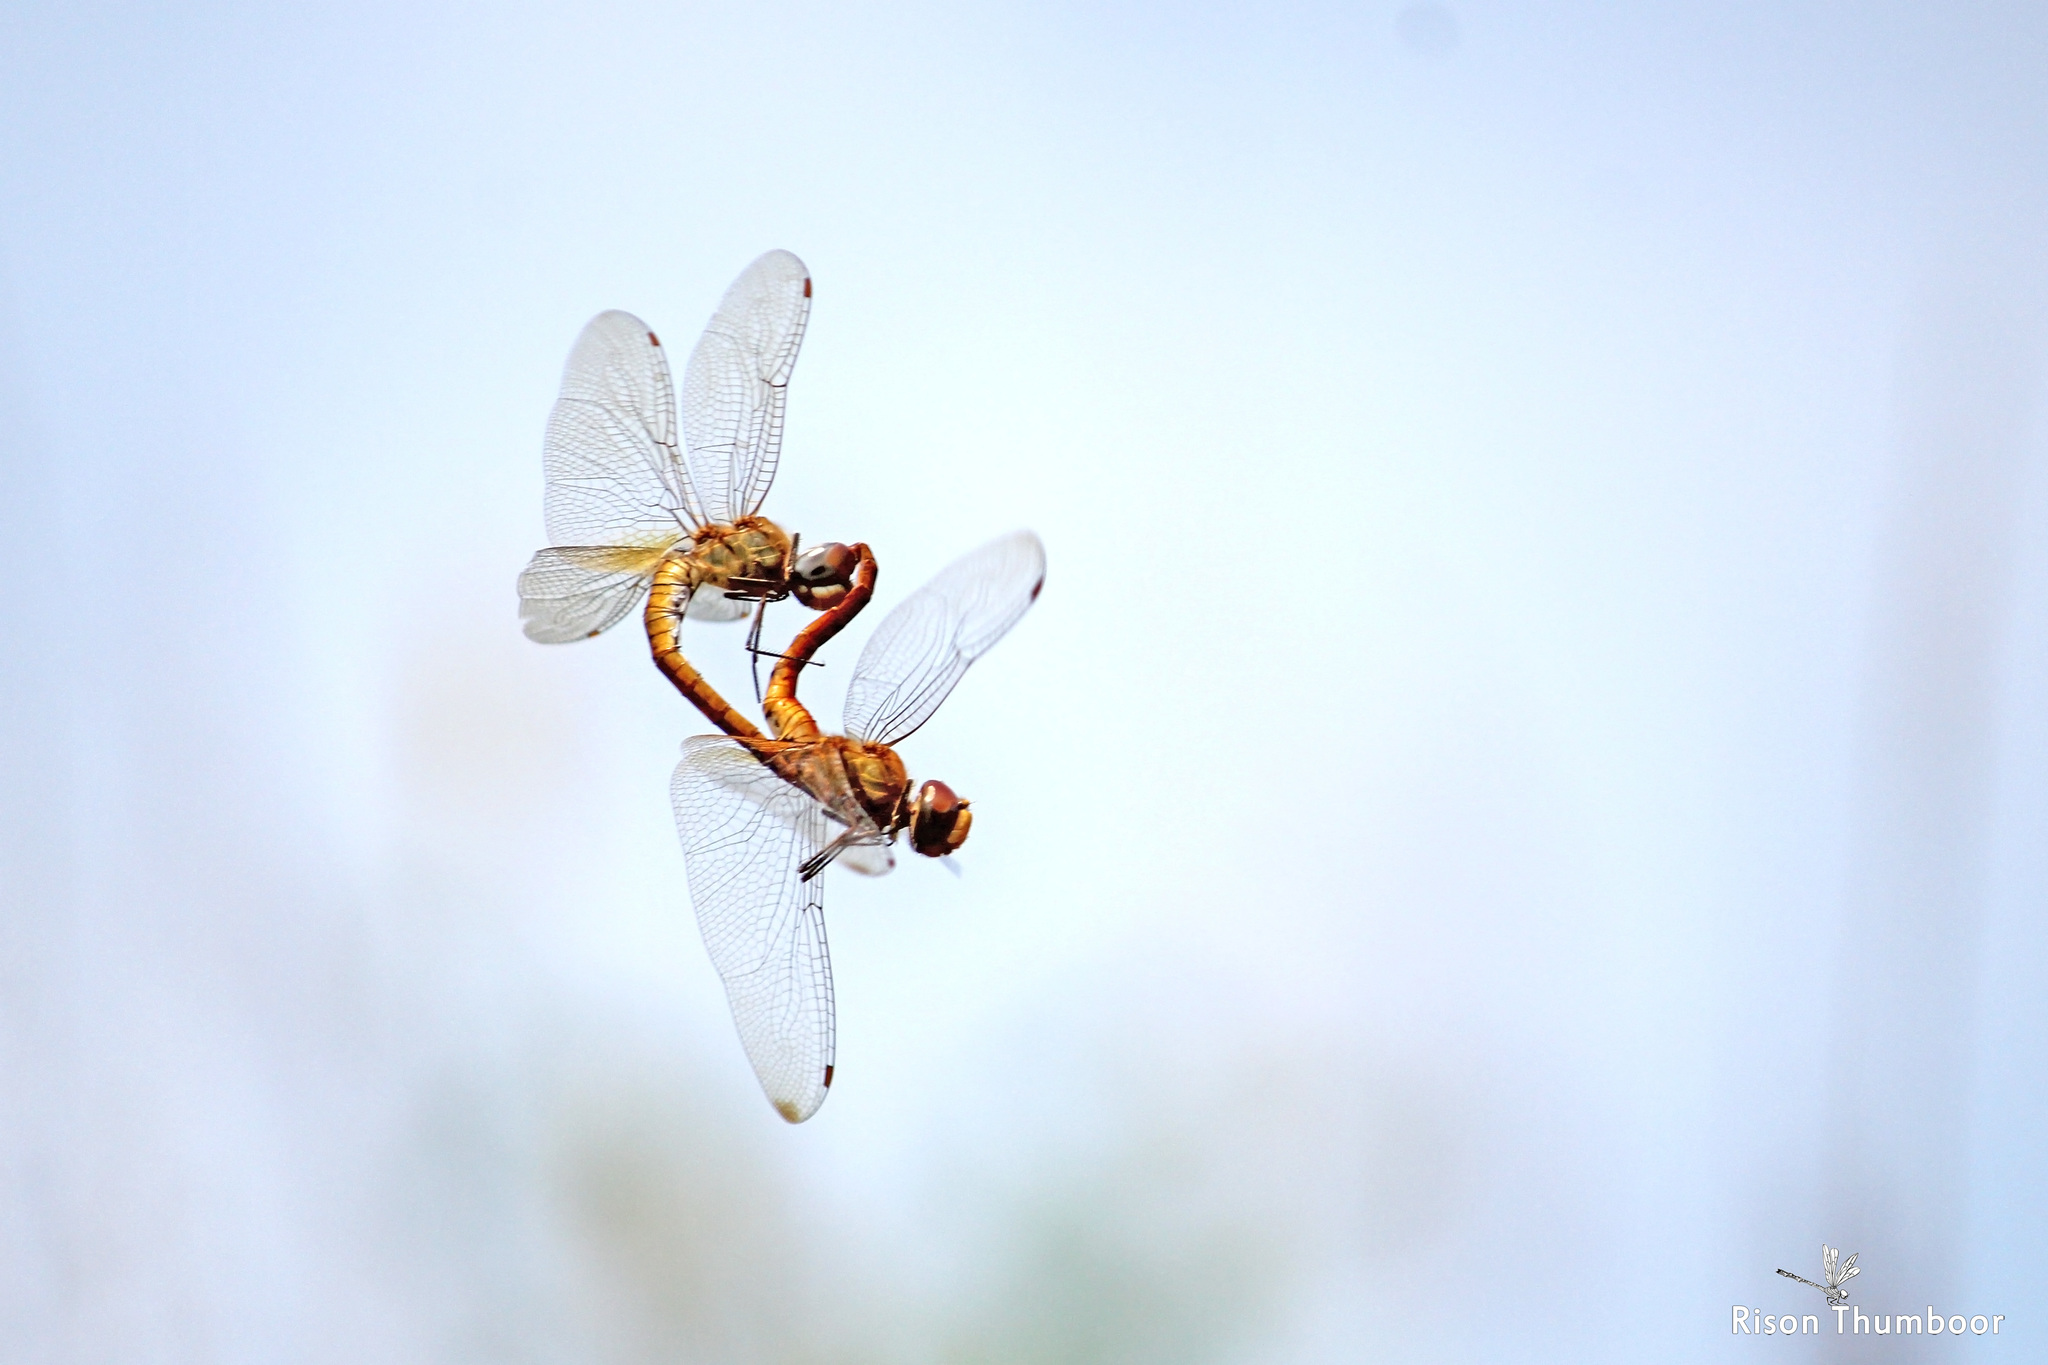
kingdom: Animalia
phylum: Arthropoda
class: Insecta
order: Odonata
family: Libellulidae
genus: Pantala
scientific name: Pantala flavescens
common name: Wandering glider
